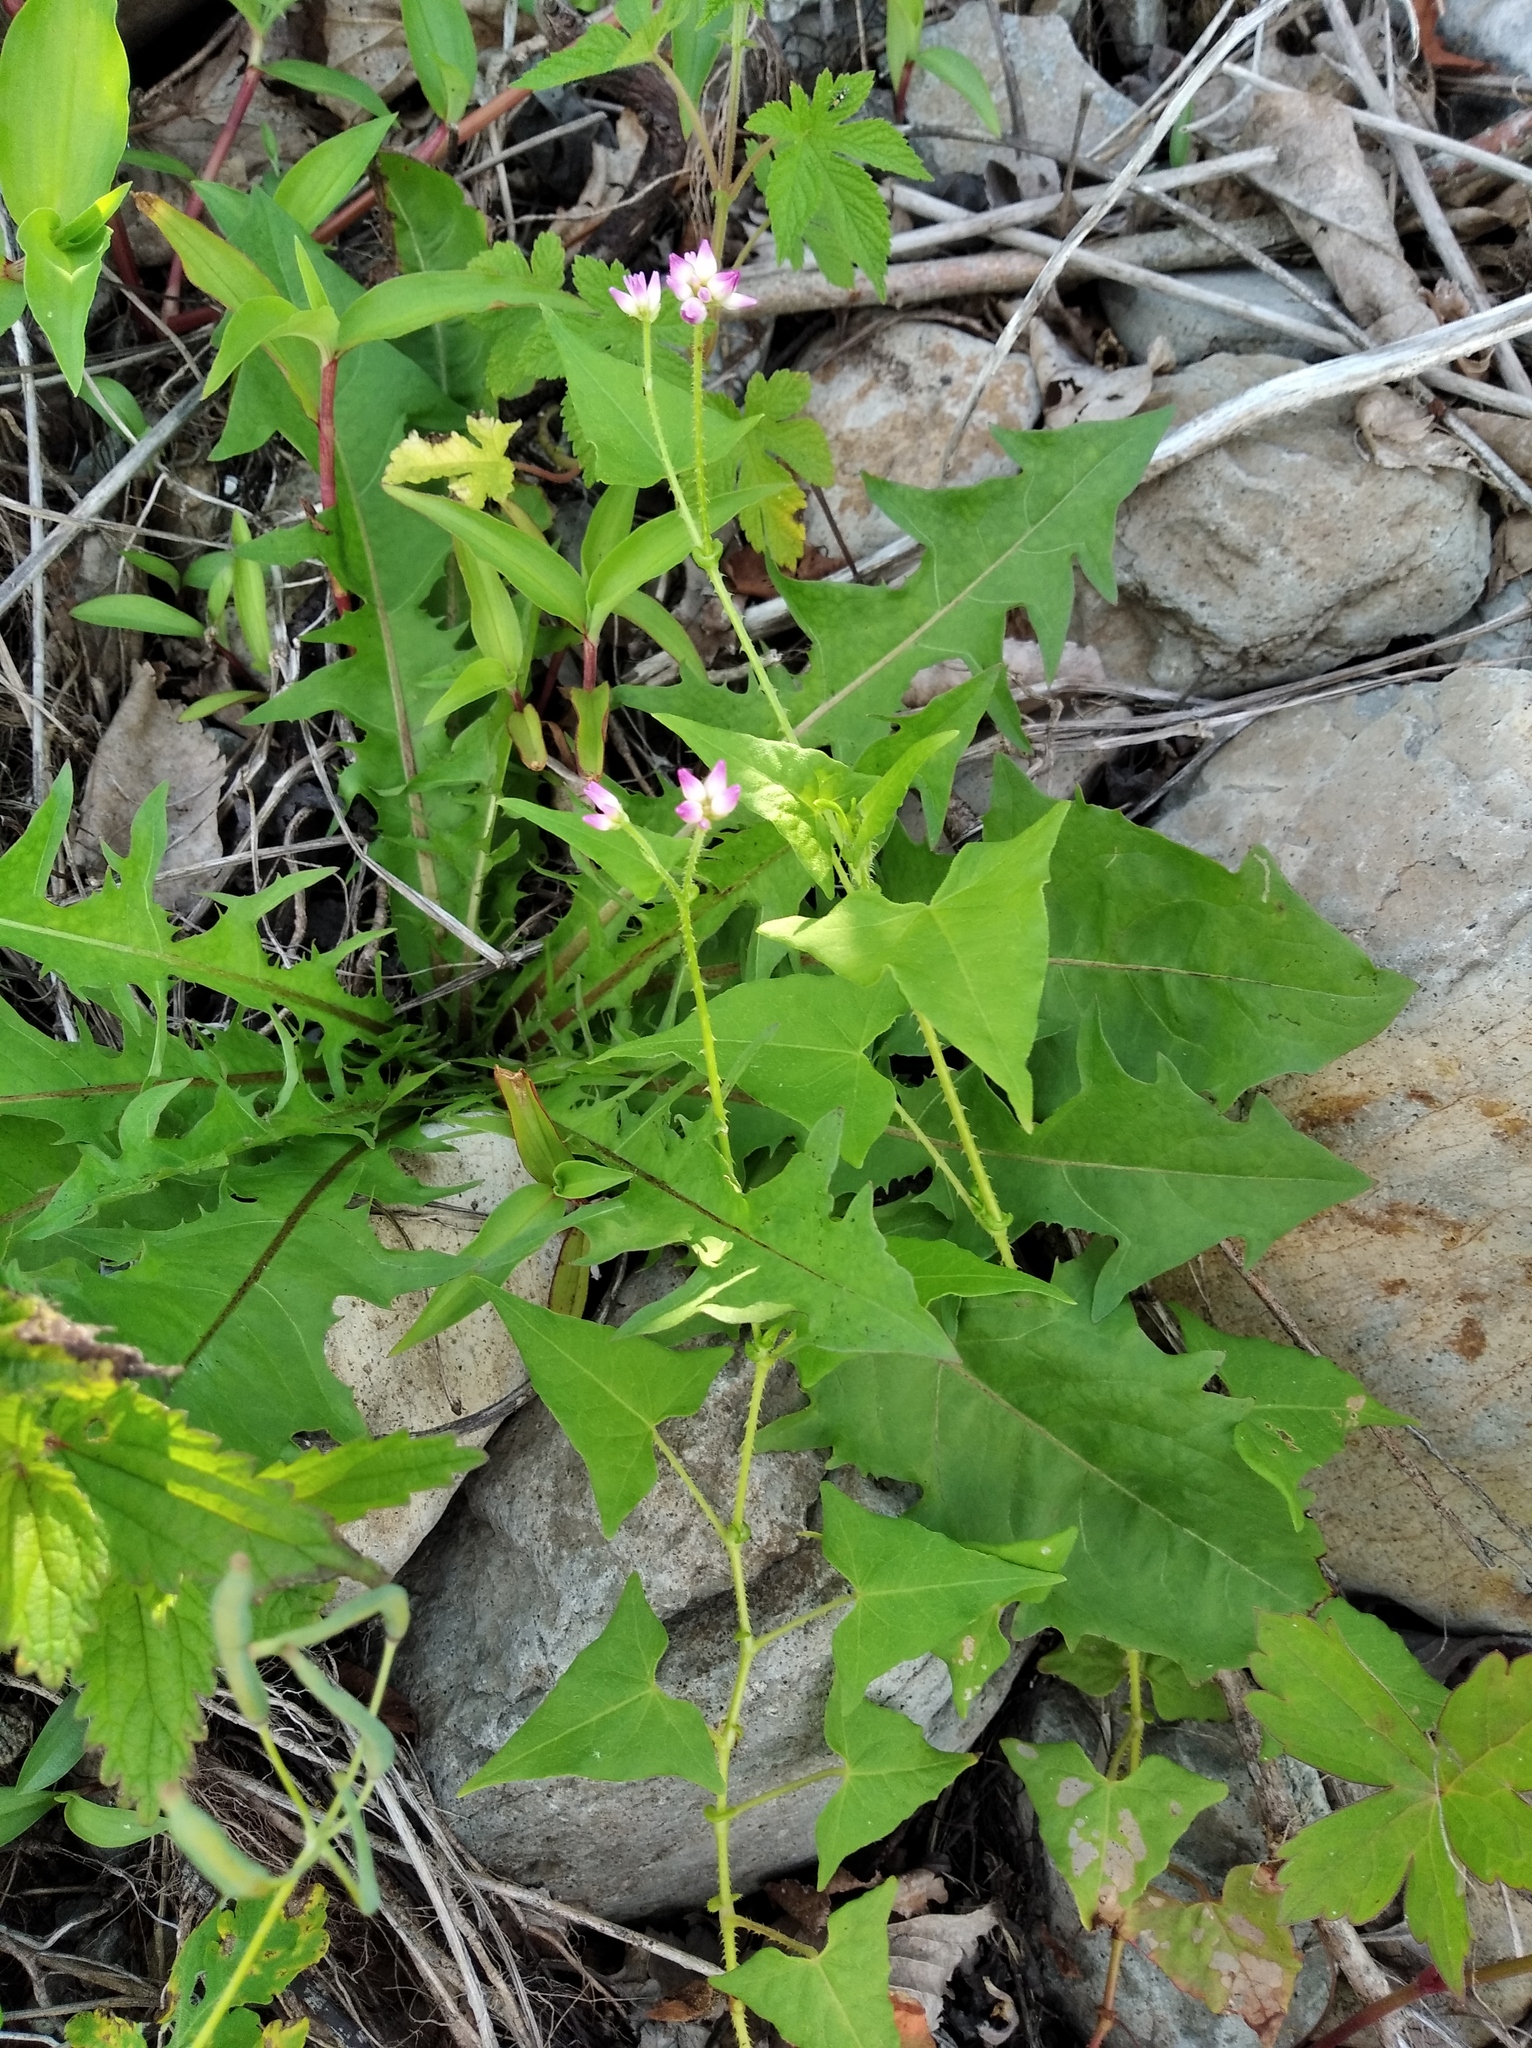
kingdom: Plantae
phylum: Tracheophyta
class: Magnoliopsida
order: Caryophyllales
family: Polygonaceae
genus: Persicaria
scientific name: Persicaria senticosa
